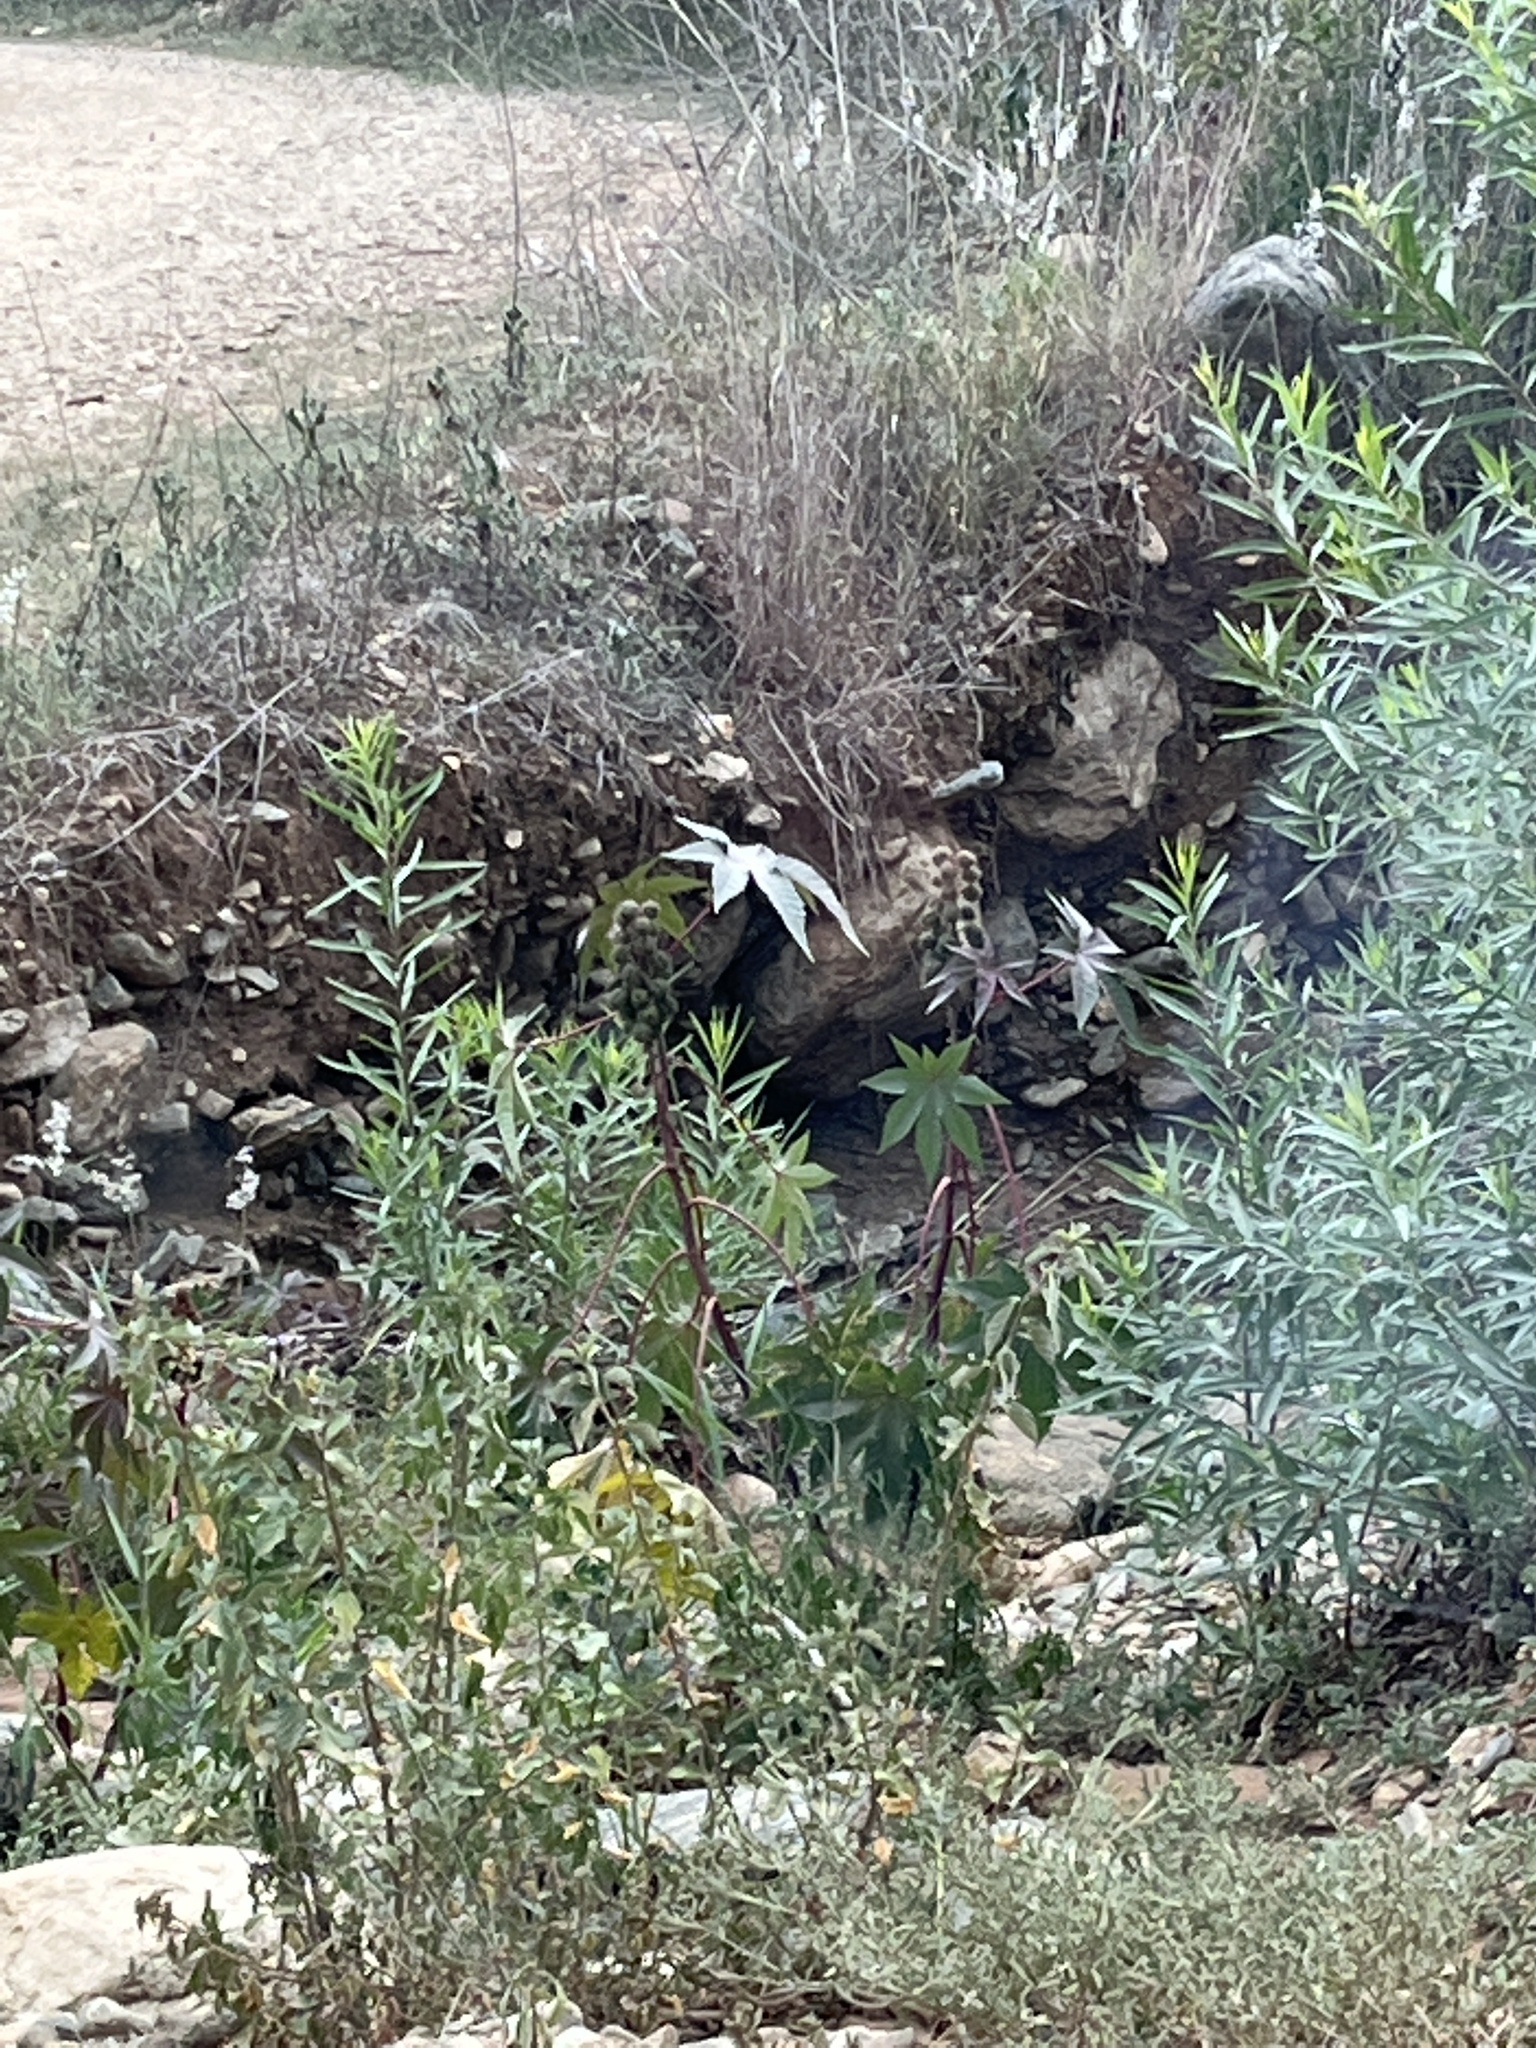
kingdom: Plantae
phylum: Tracheophyta
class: Magnoliopsida
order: Malpighiales
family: Euphorbiaceae
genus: Ricinus
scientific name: Ricinus communis
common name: Castor-oil-plant
